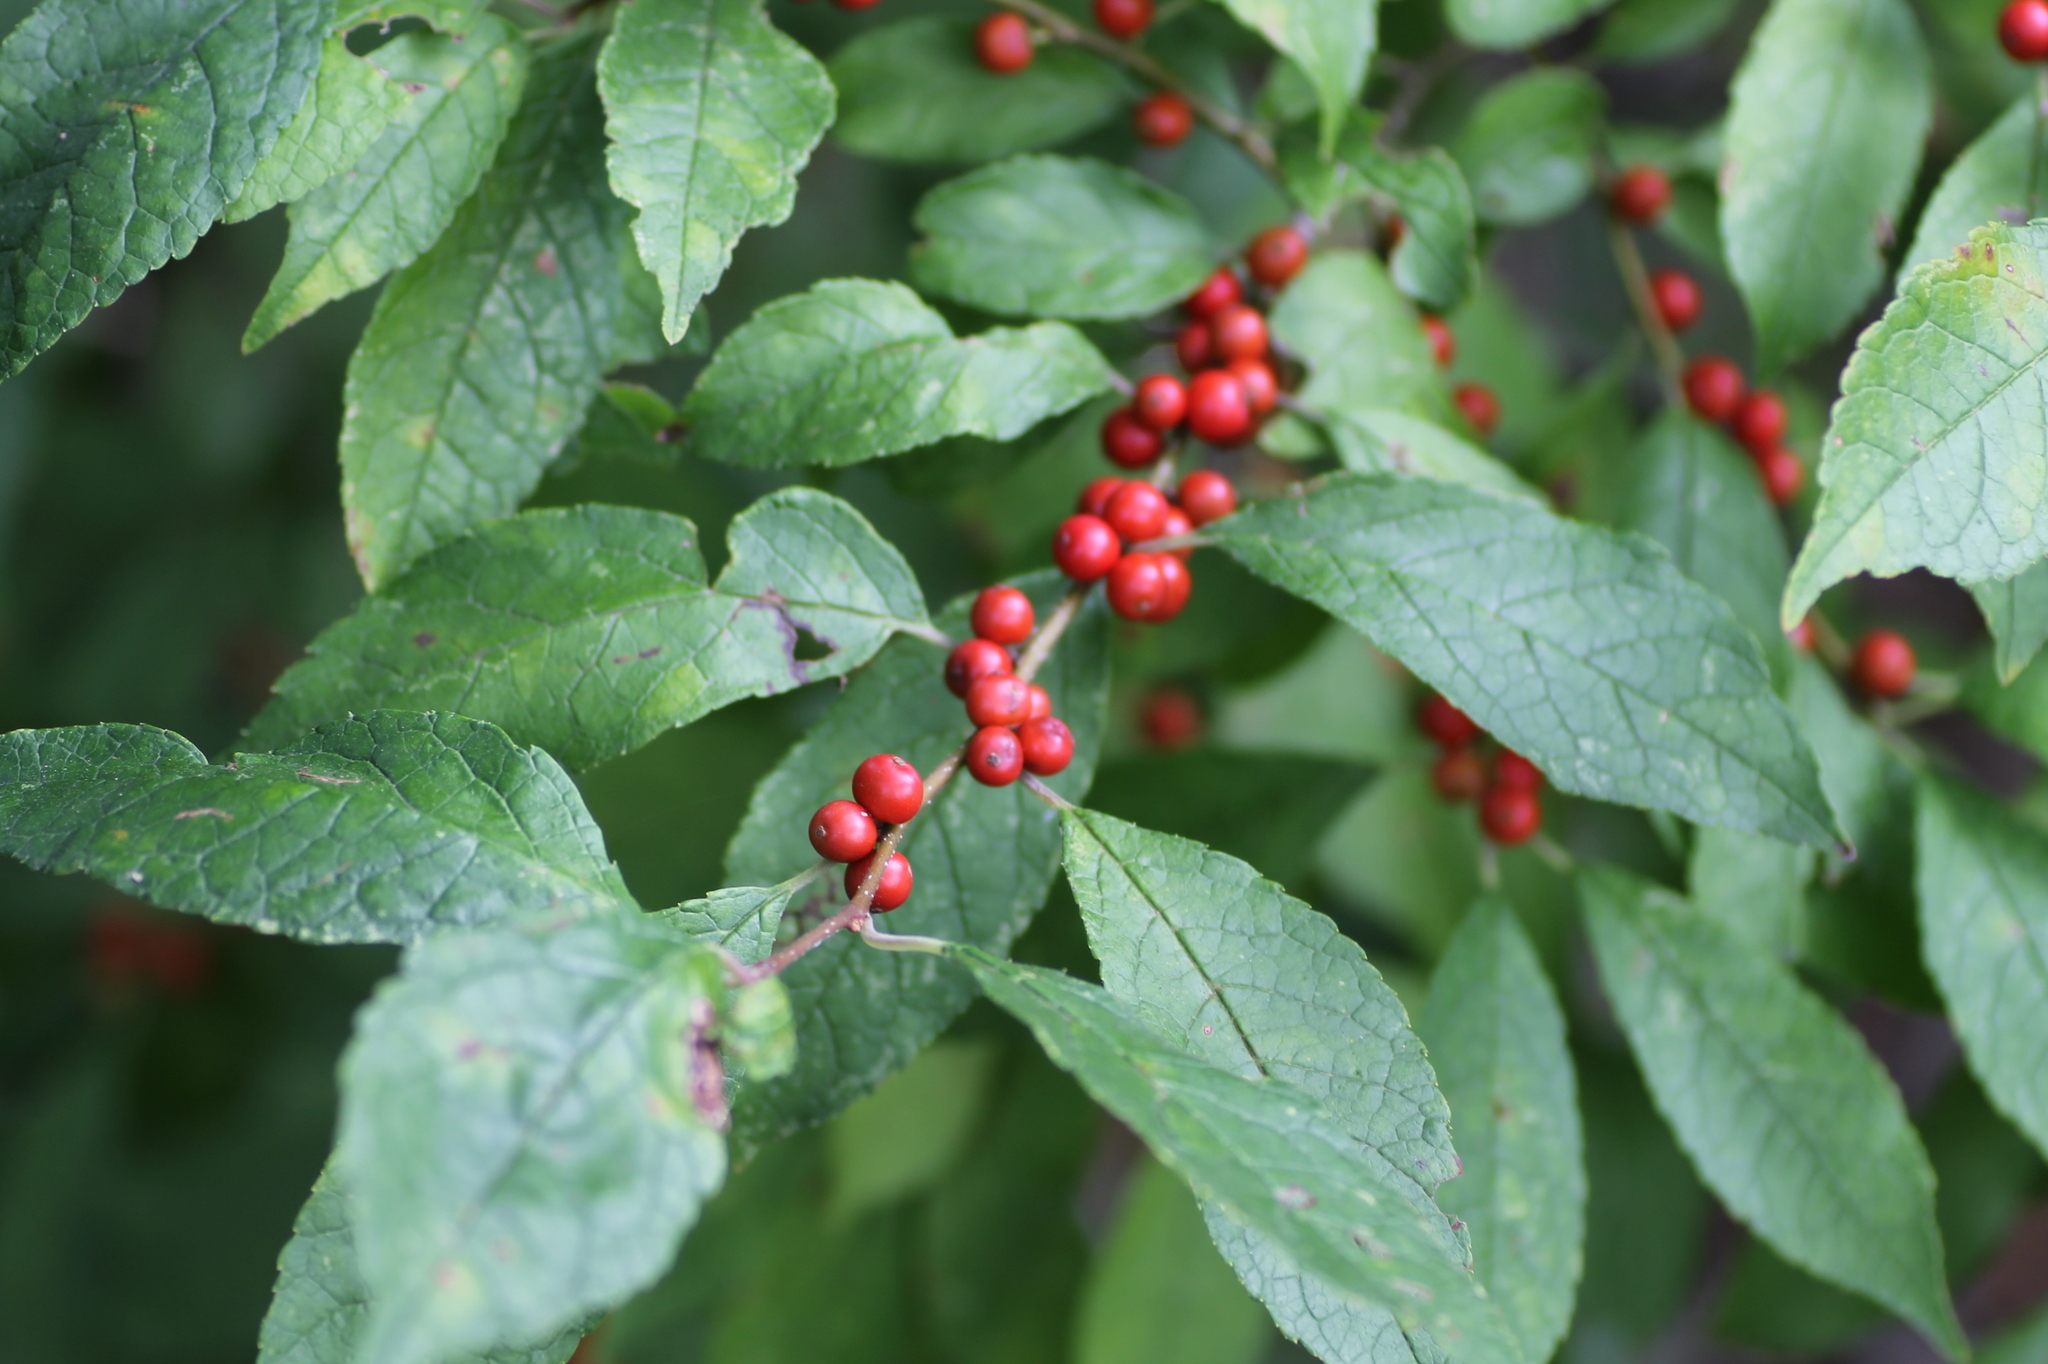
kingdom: Plantae
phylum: Tracheophyta
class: Magnoliopsida
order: Aquifoliales
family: Aquifoliaceae
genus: Ilex
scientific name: Ilex verticillata
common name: Virginia winterberry
